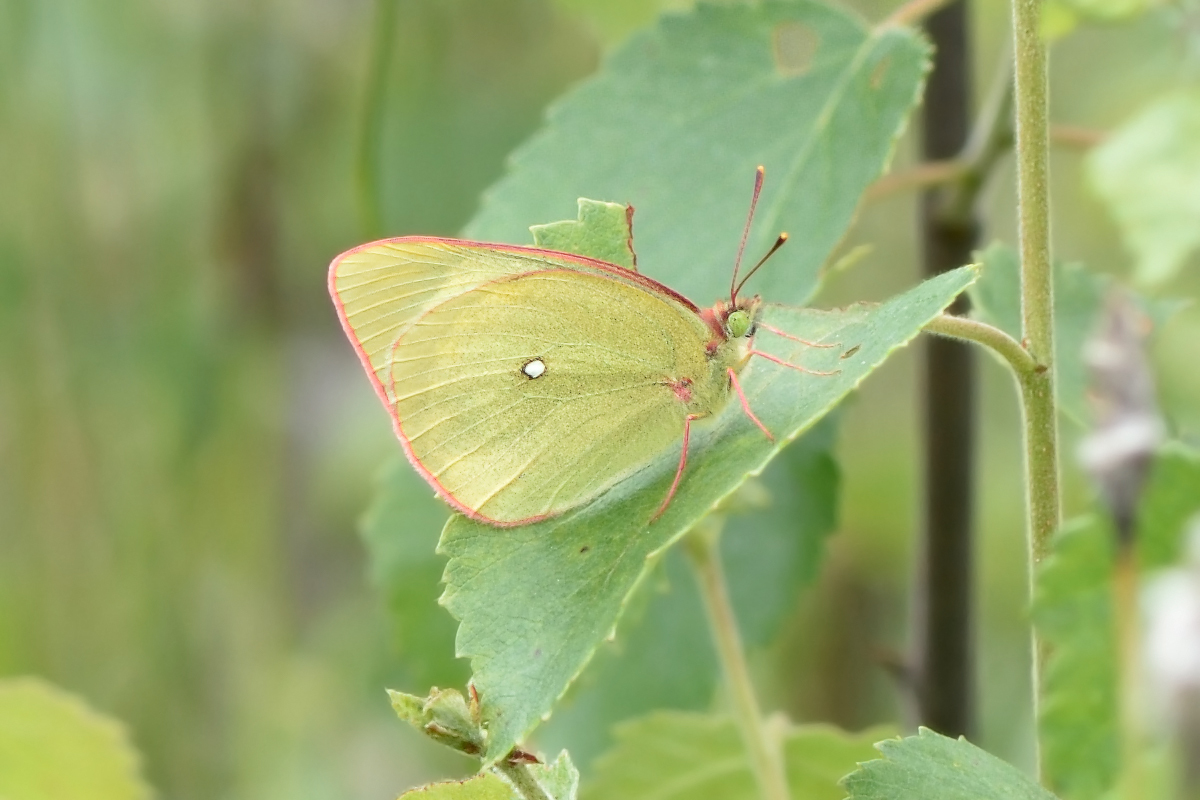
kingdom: Animalia
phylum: Arthropoda
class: Insecta
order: Lepidoptera
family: Pieridae
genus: Colias
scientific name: Colias palaeno
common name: Moorland clouded yellow
